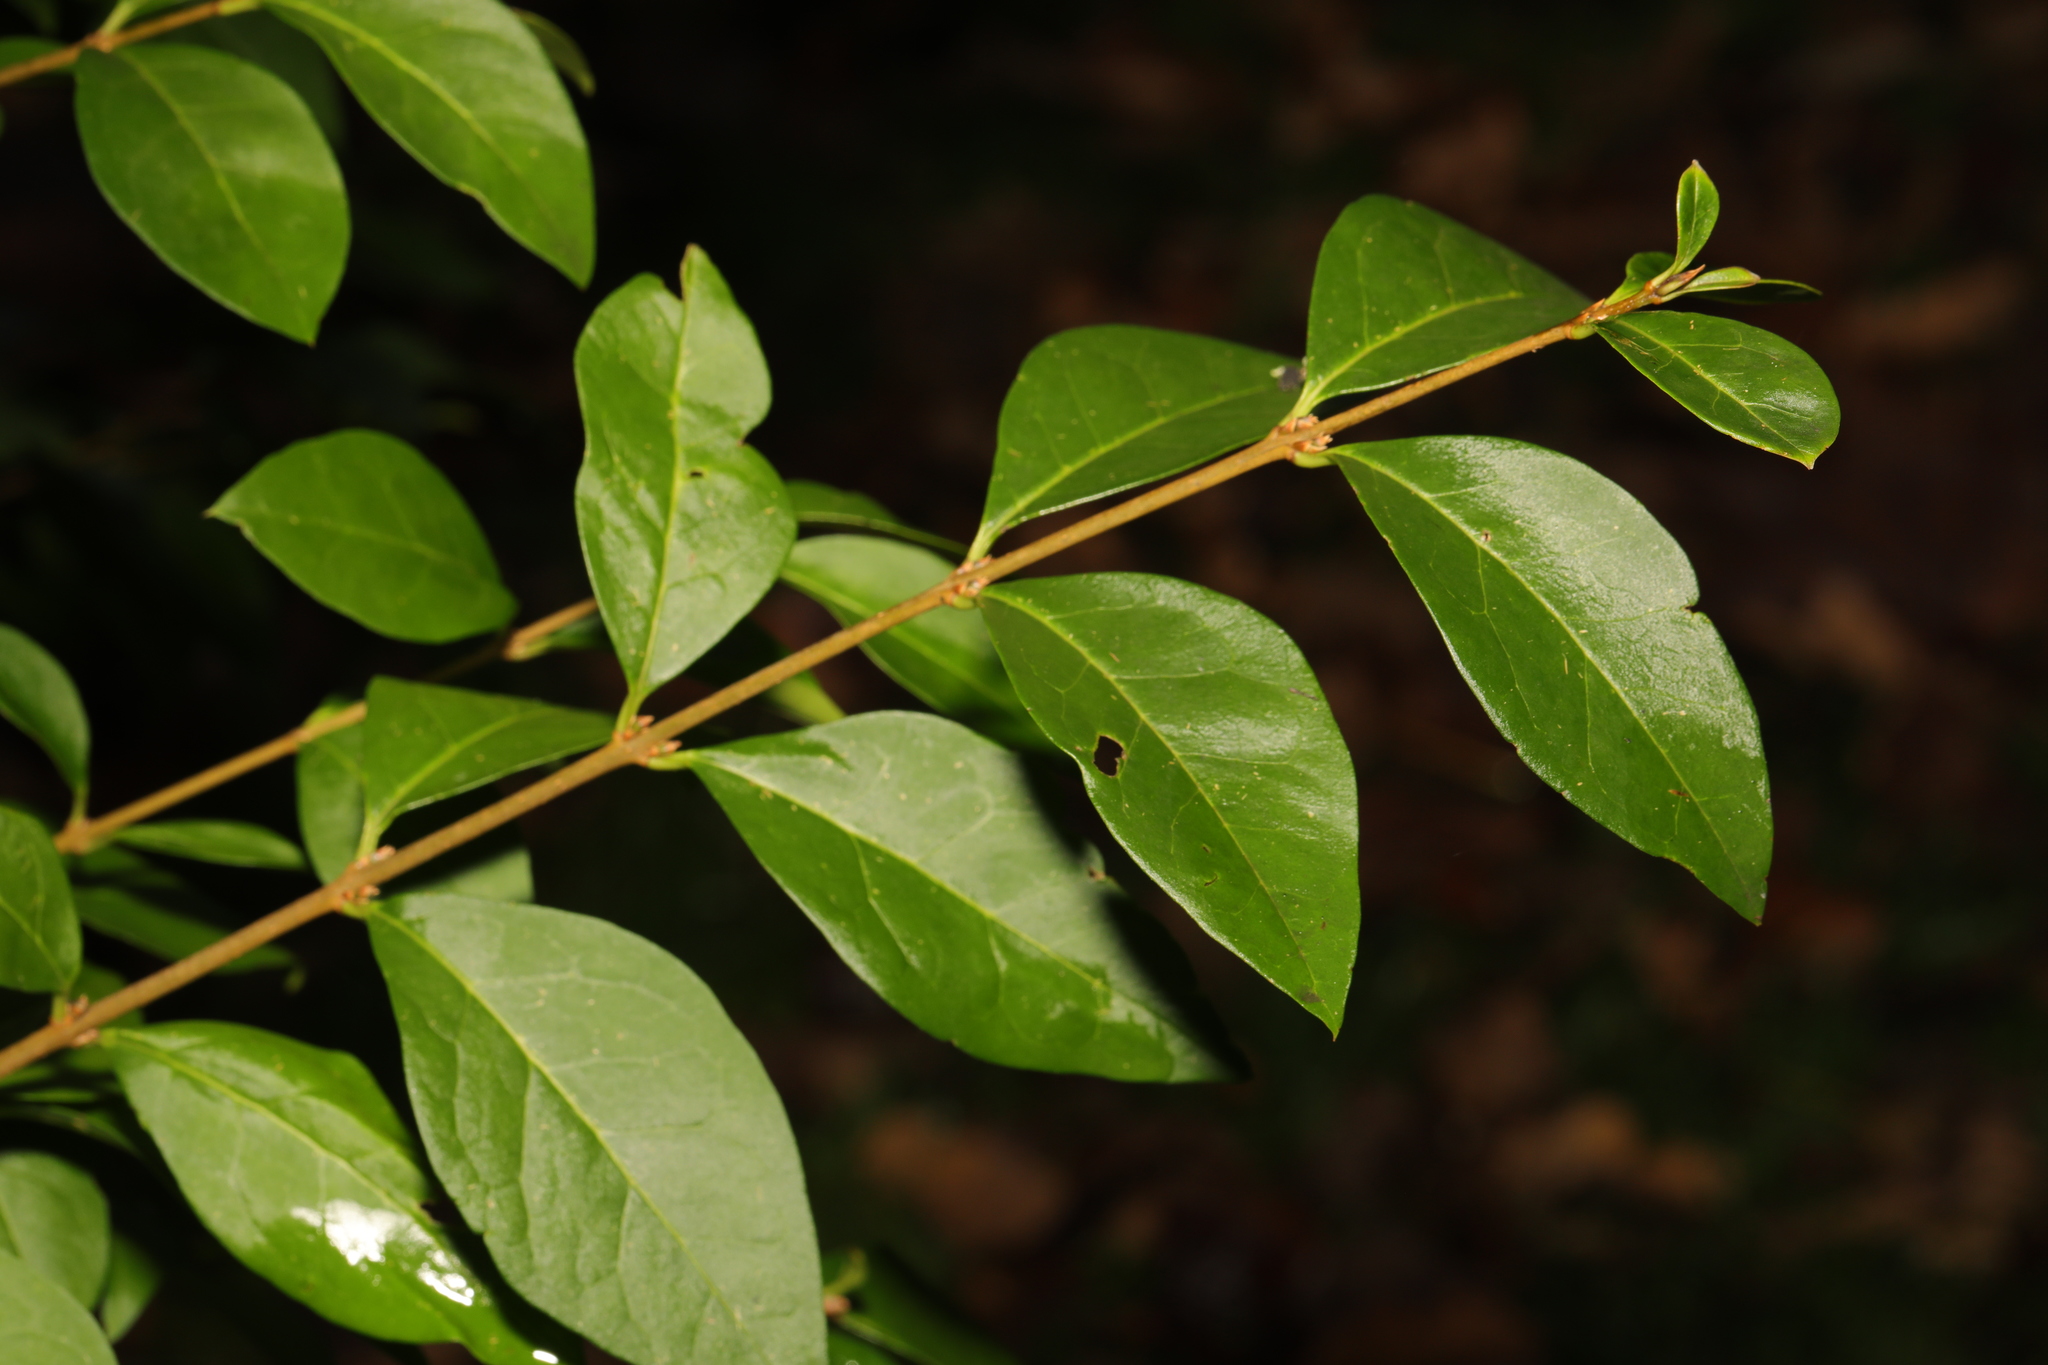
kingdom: Plantae
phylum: Tracheophyta
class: Magnoliopsida
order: Lamiales
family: Oleaceae
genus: Ligustrum
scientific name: Ligustrum ovalifolium
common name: California privet
